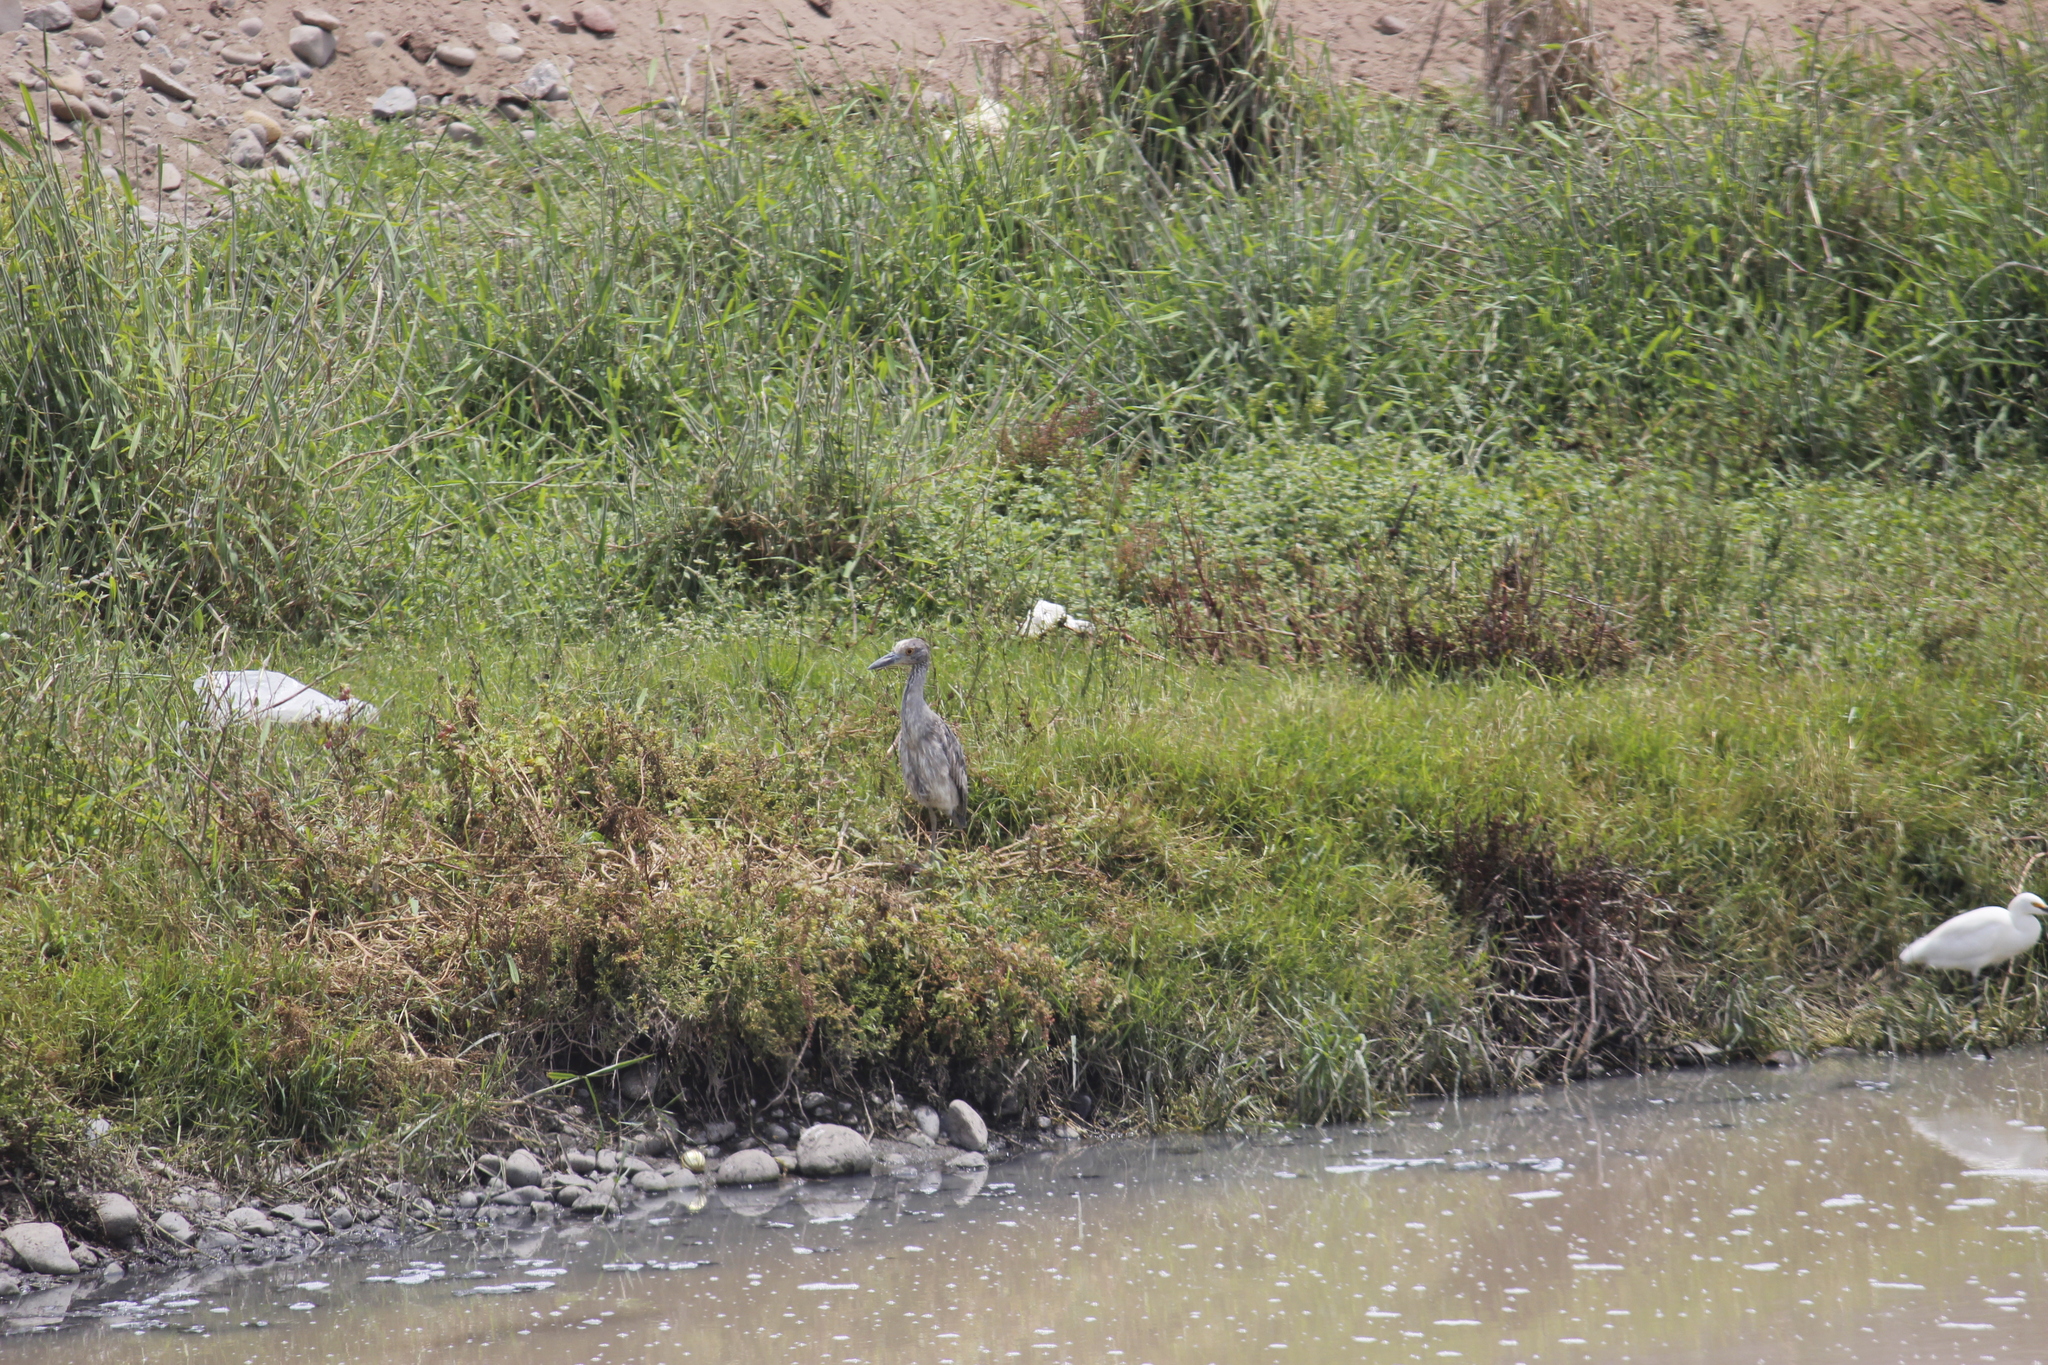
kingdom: Animalia
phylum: Chordata
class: Aves
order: Pelecaniformes
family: Ardeidae
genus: Nyctanassa
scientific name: Nyctanassa violacea
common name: Yellow-crowned night heron
